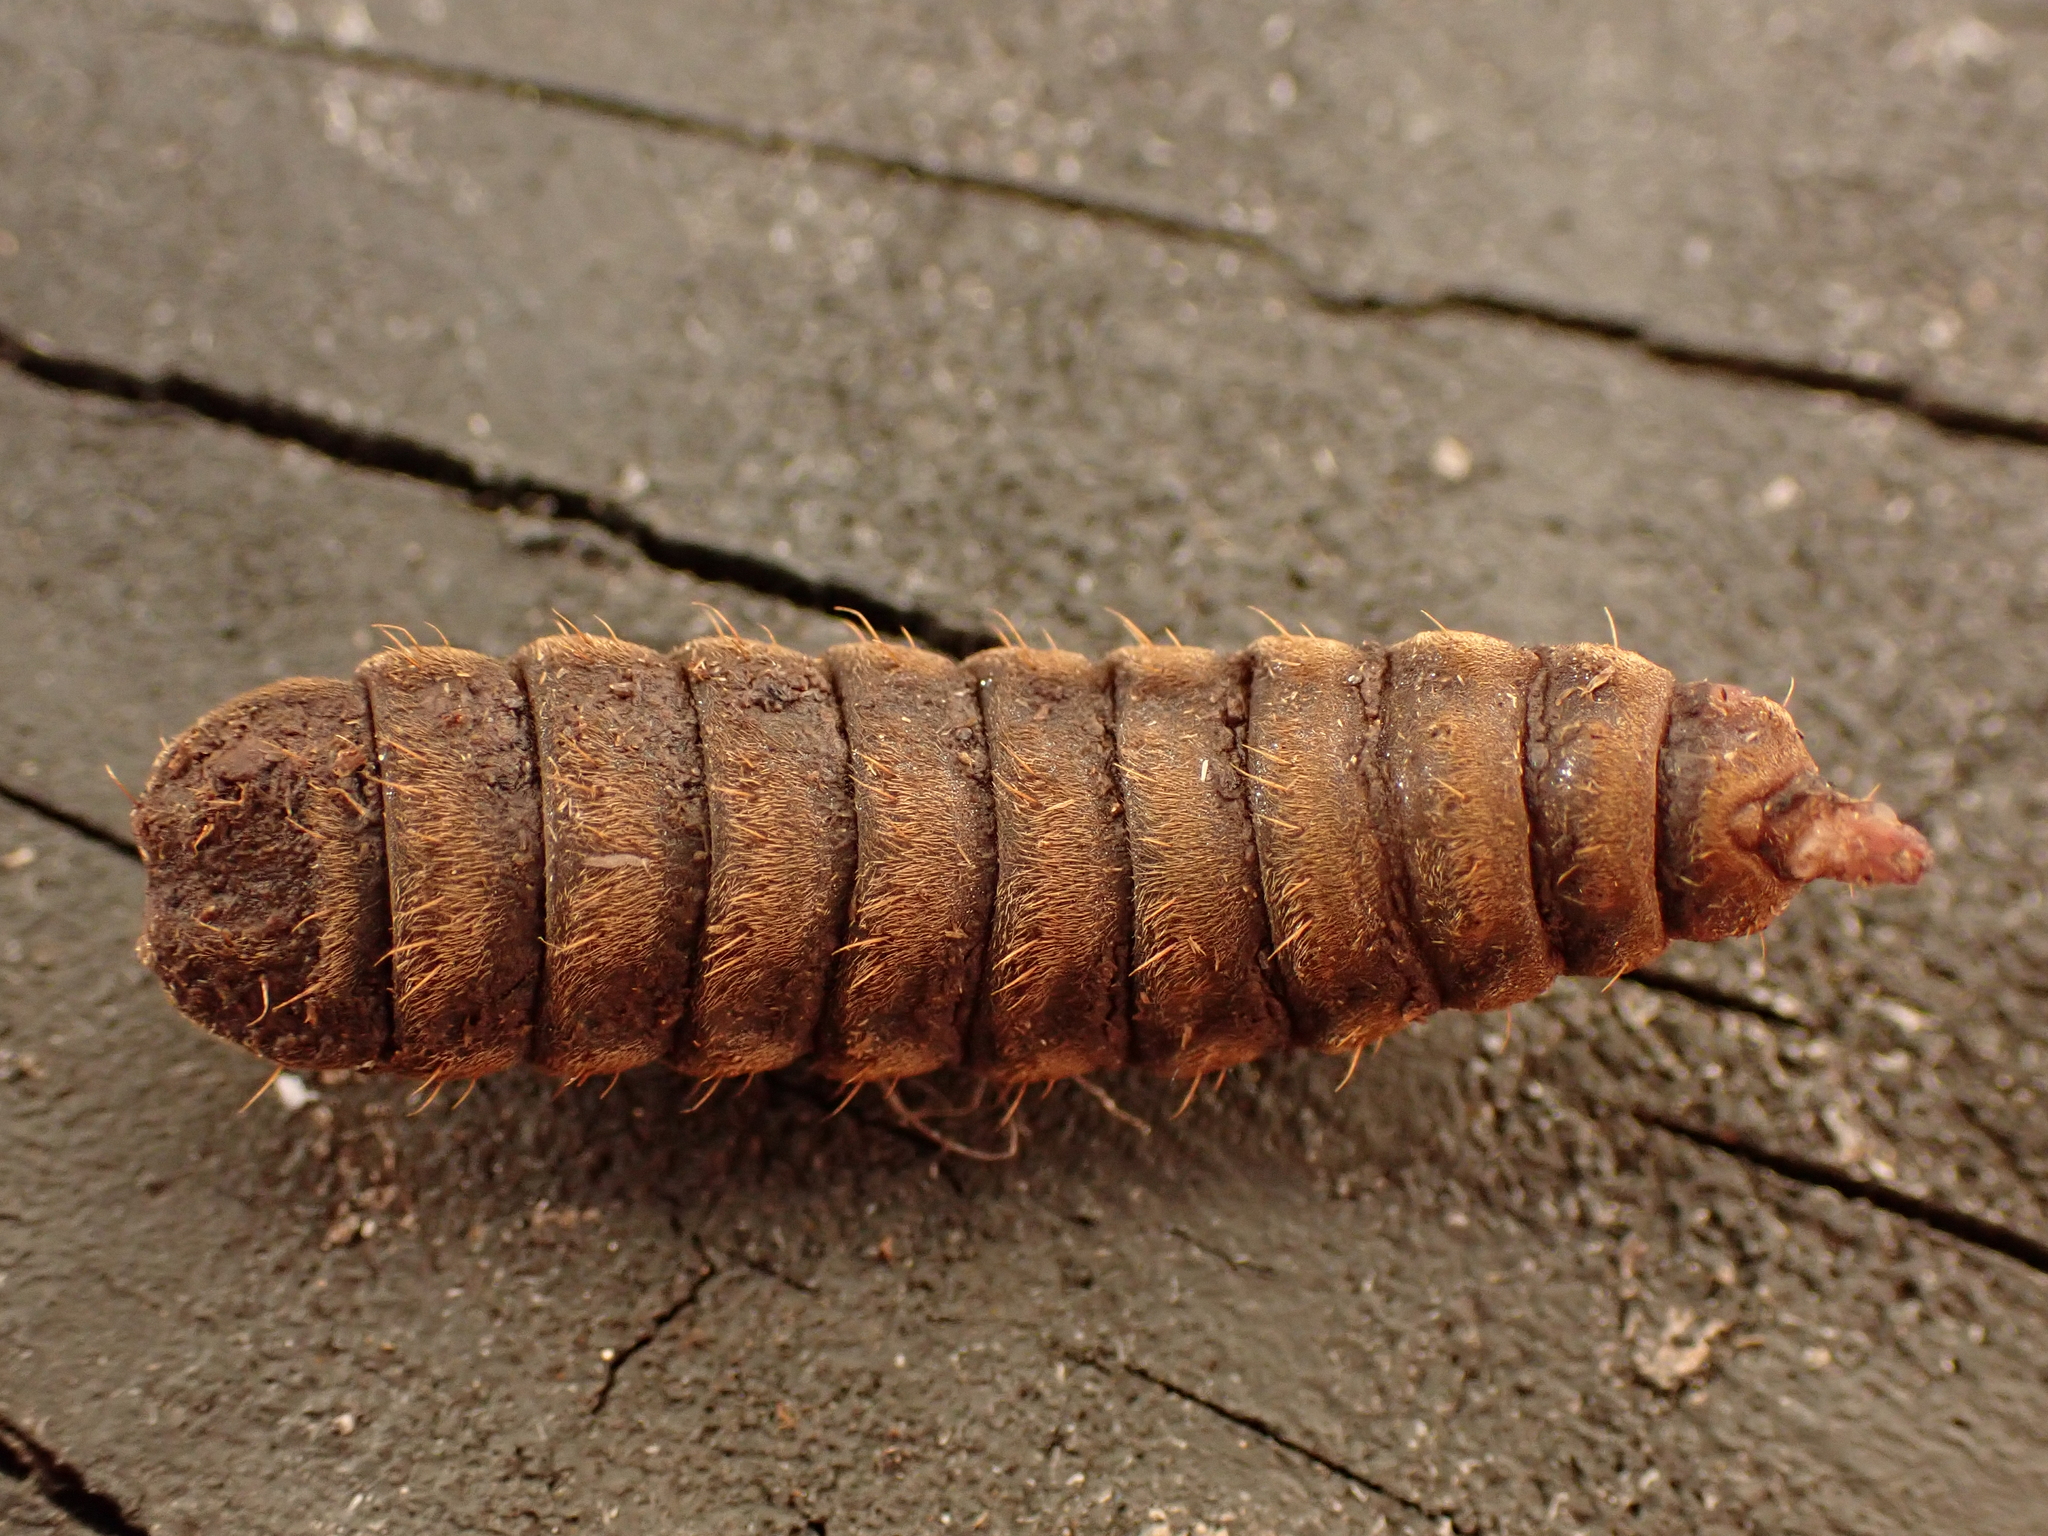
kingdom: Animalia
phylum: Arthropoda
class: Insecta
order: Diptera
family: Stratiomyidae
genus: Hermetia
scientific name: Hermetia illucens
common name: Black soldier fly
